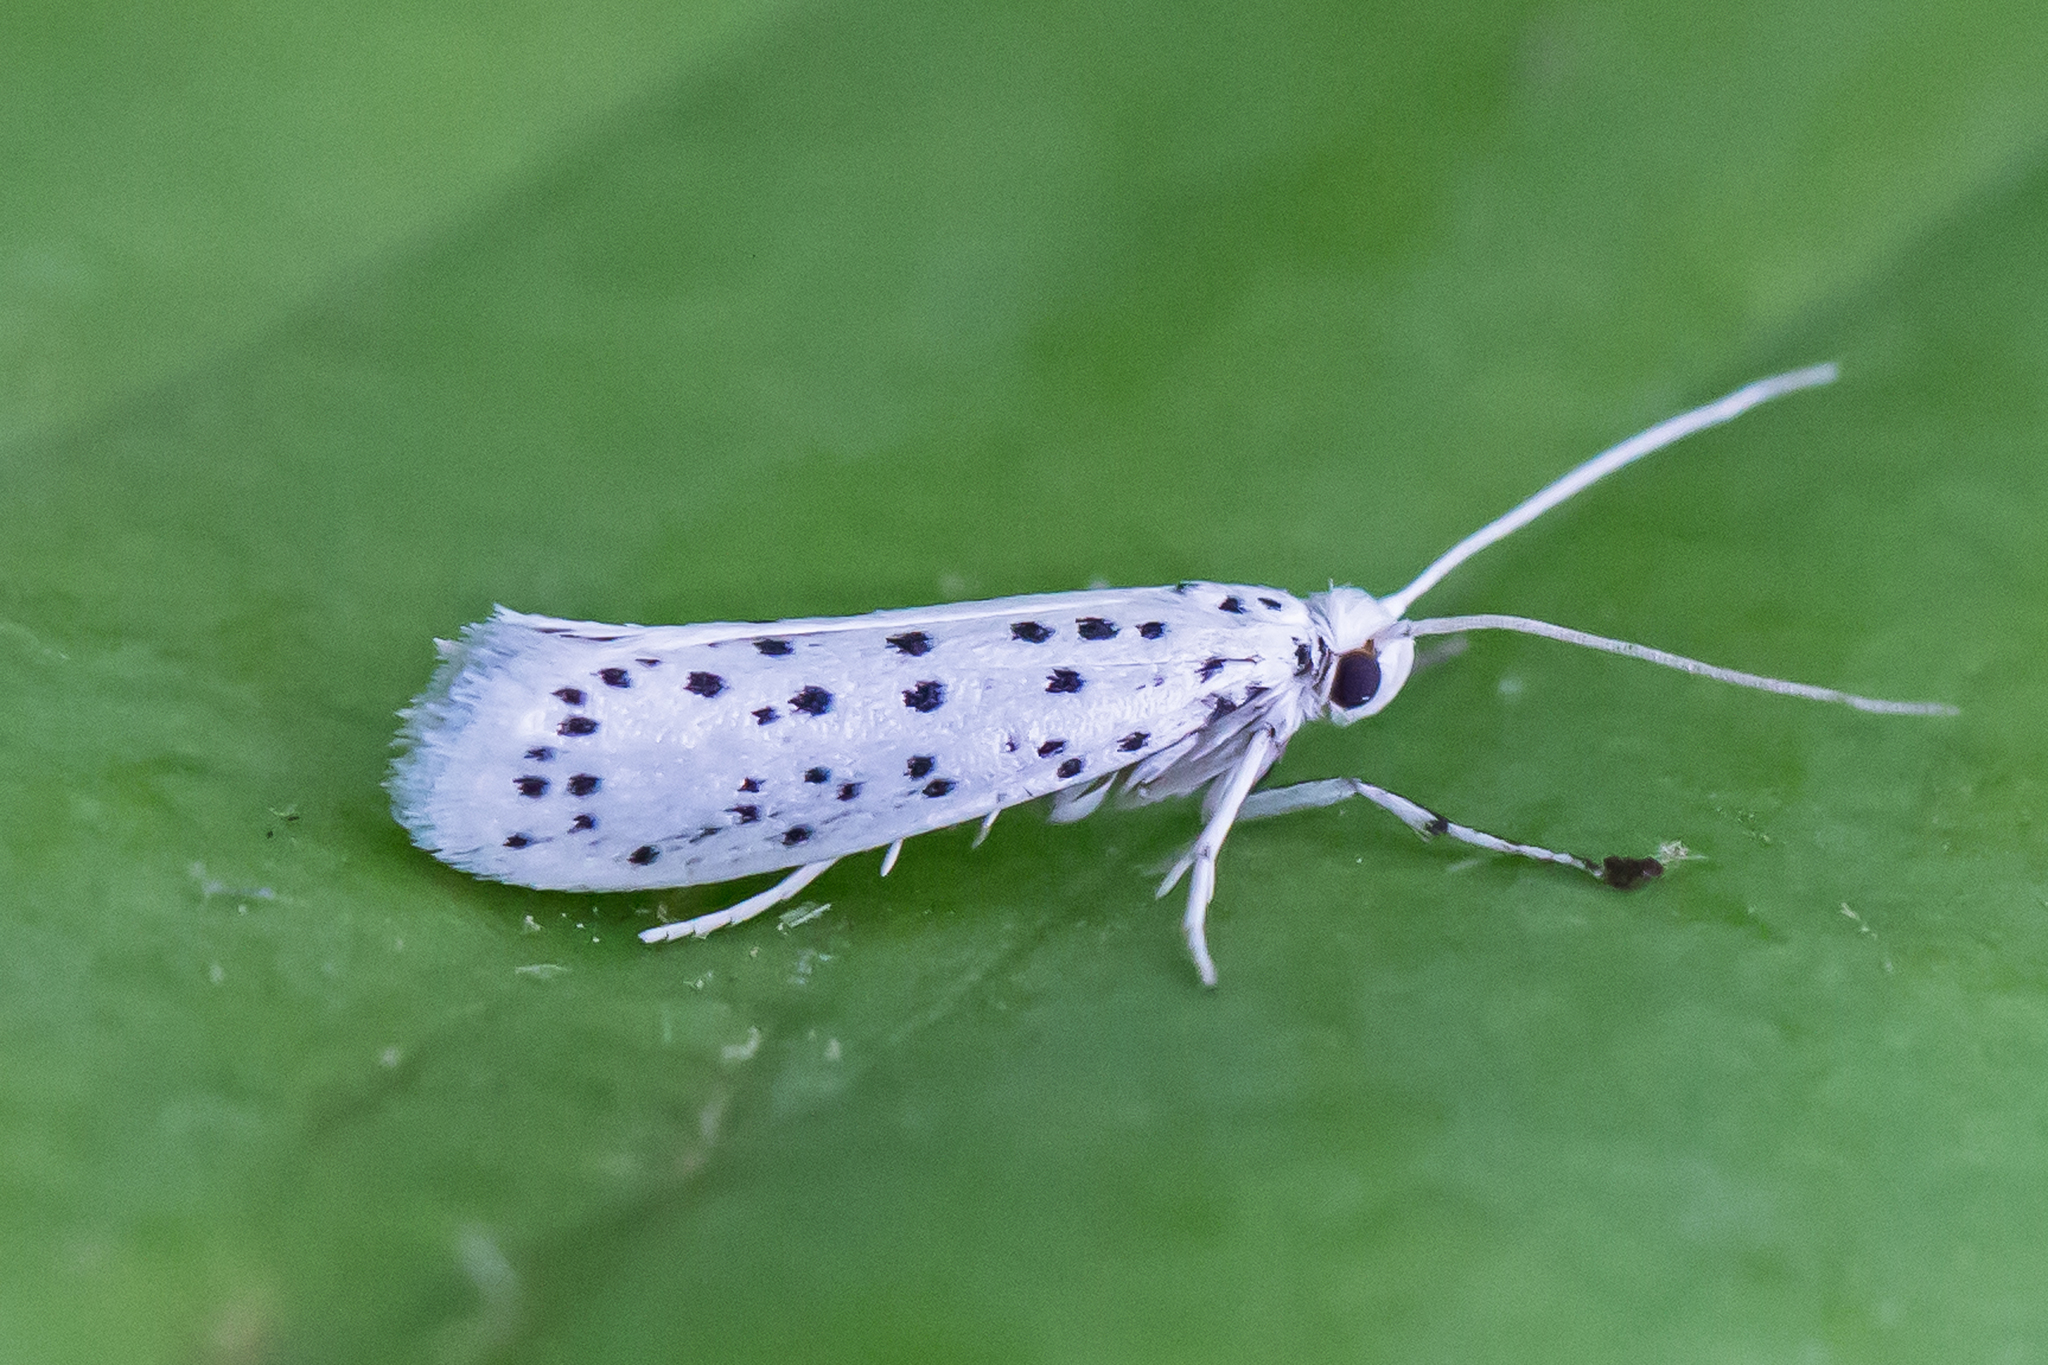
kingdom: Animalia
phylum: Arthropoda
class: Insecta
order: Lepidoptera
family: Yponomeutidae
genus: Yponomeuta
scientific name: Yponomeuta multipunctella
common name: American ermine moth
